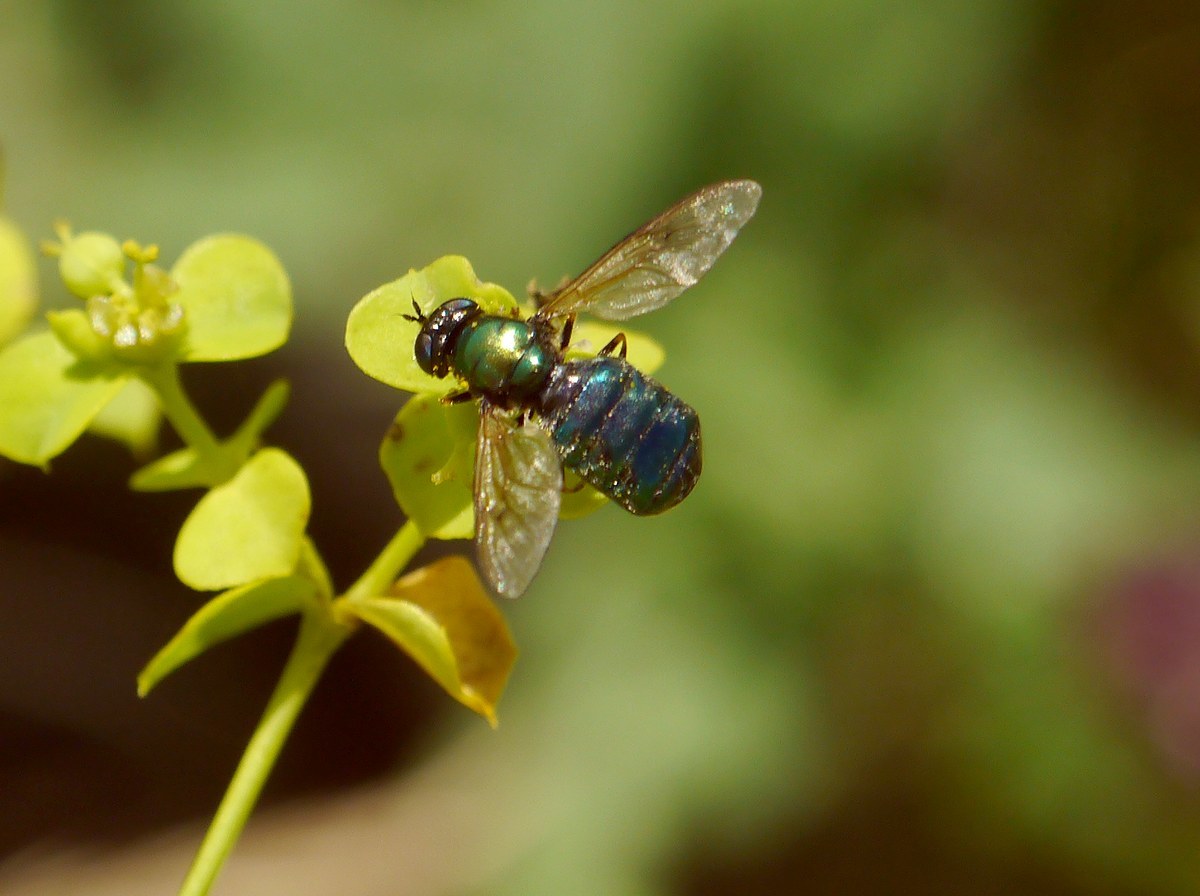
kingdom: Animalia
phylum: Arthropoda
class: Insecta
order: Diptera
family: Stratiomyidae
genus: Chloromyia
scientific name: Chloromyia formosa
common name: Soldier fly
